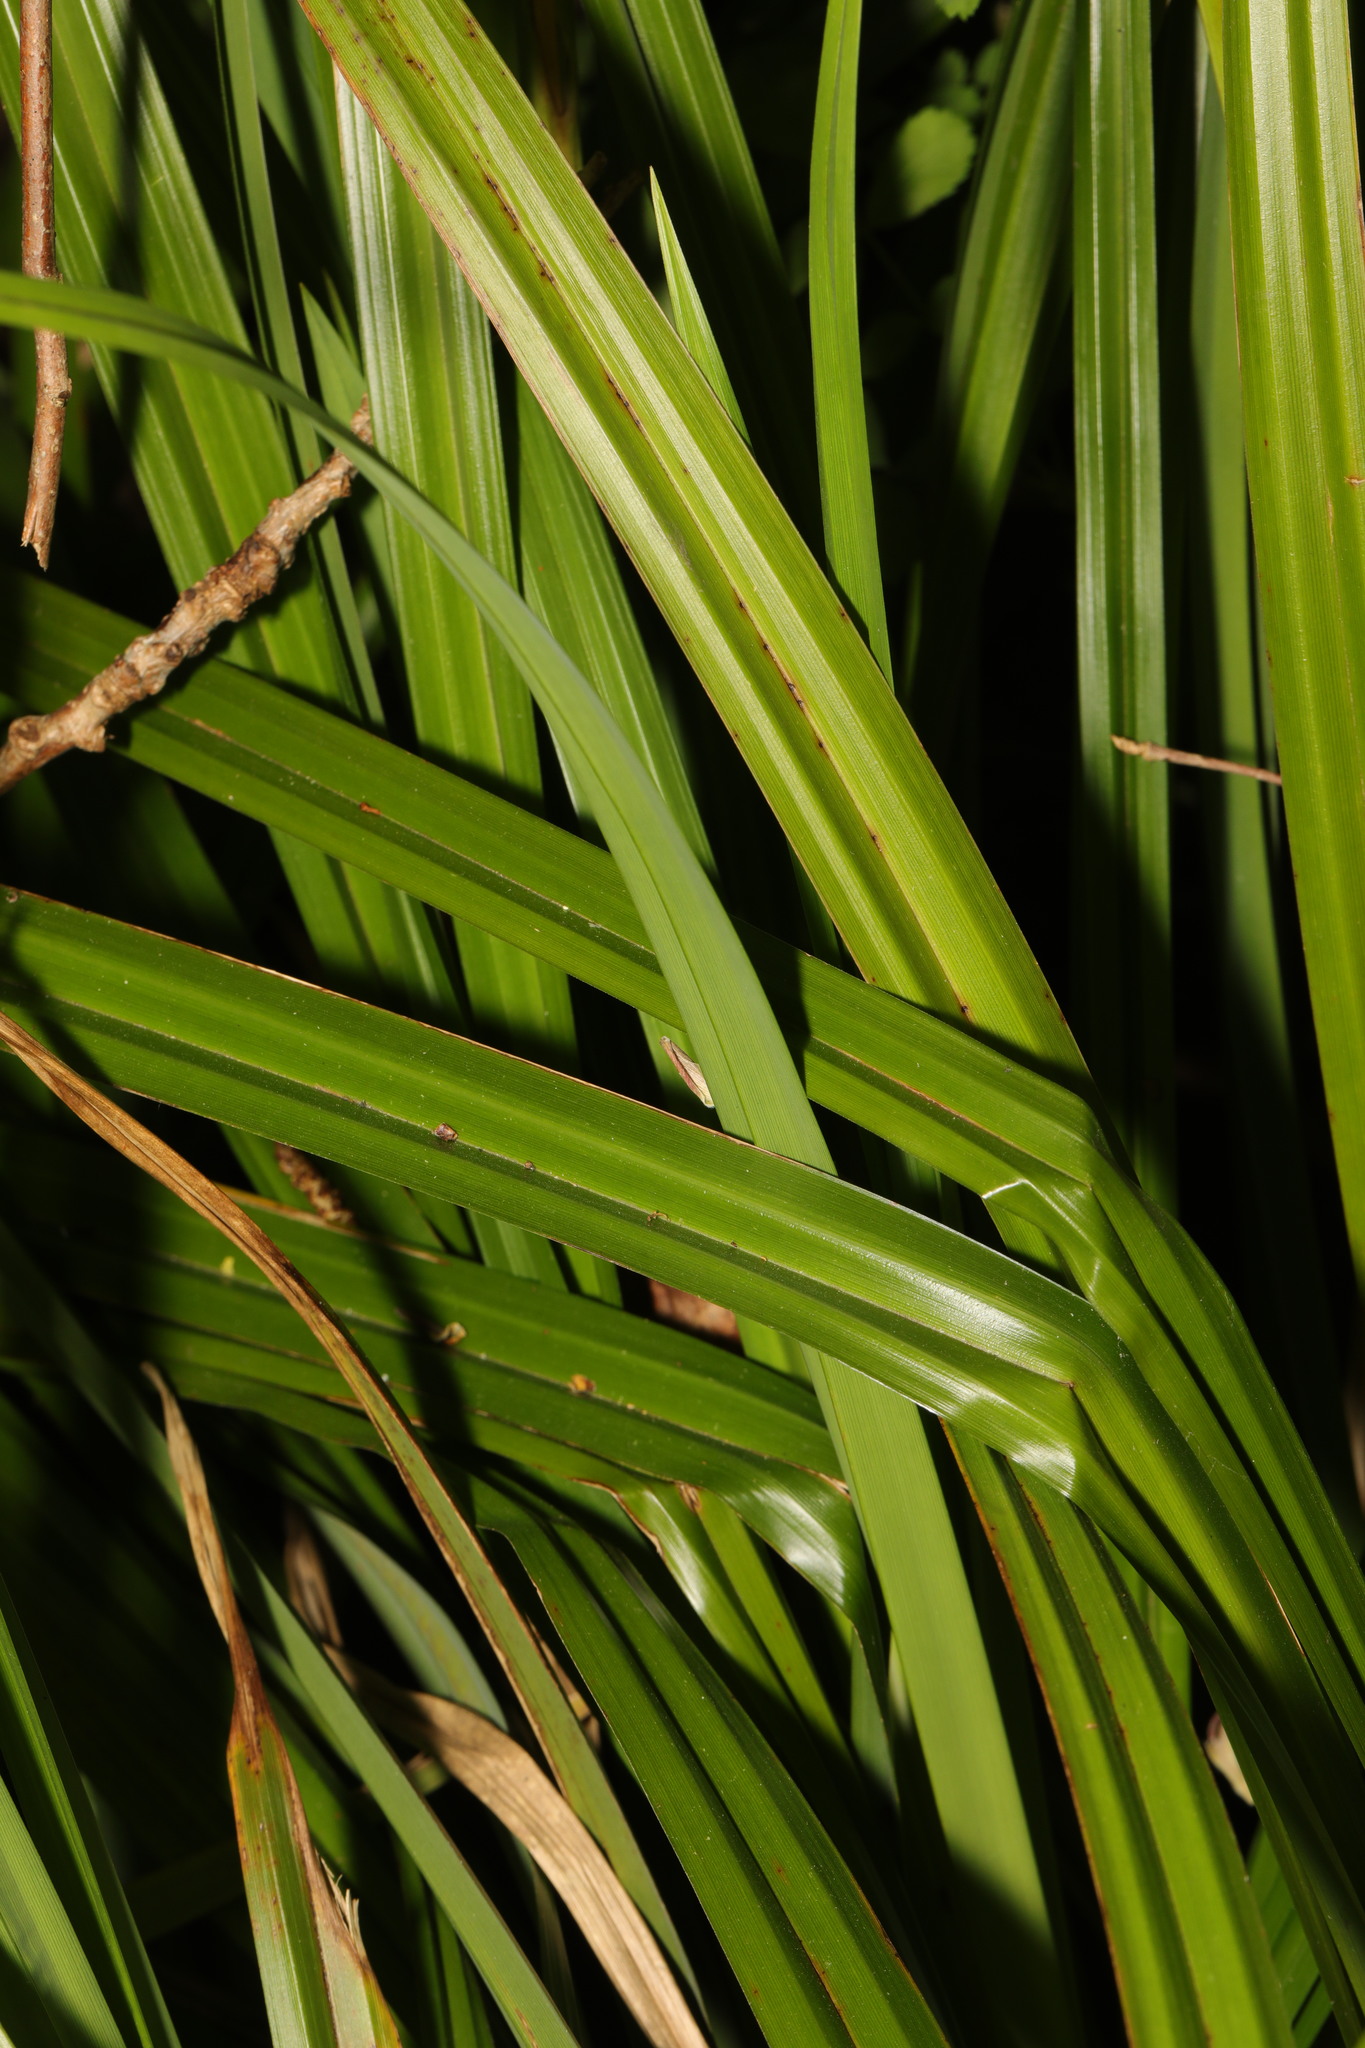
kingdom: Plantae
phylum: Tracheophyta
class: Liliopsida
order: Poales
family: Cyperaceae
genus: Carex
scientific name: Carex pendula
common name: Pendulous sedge
